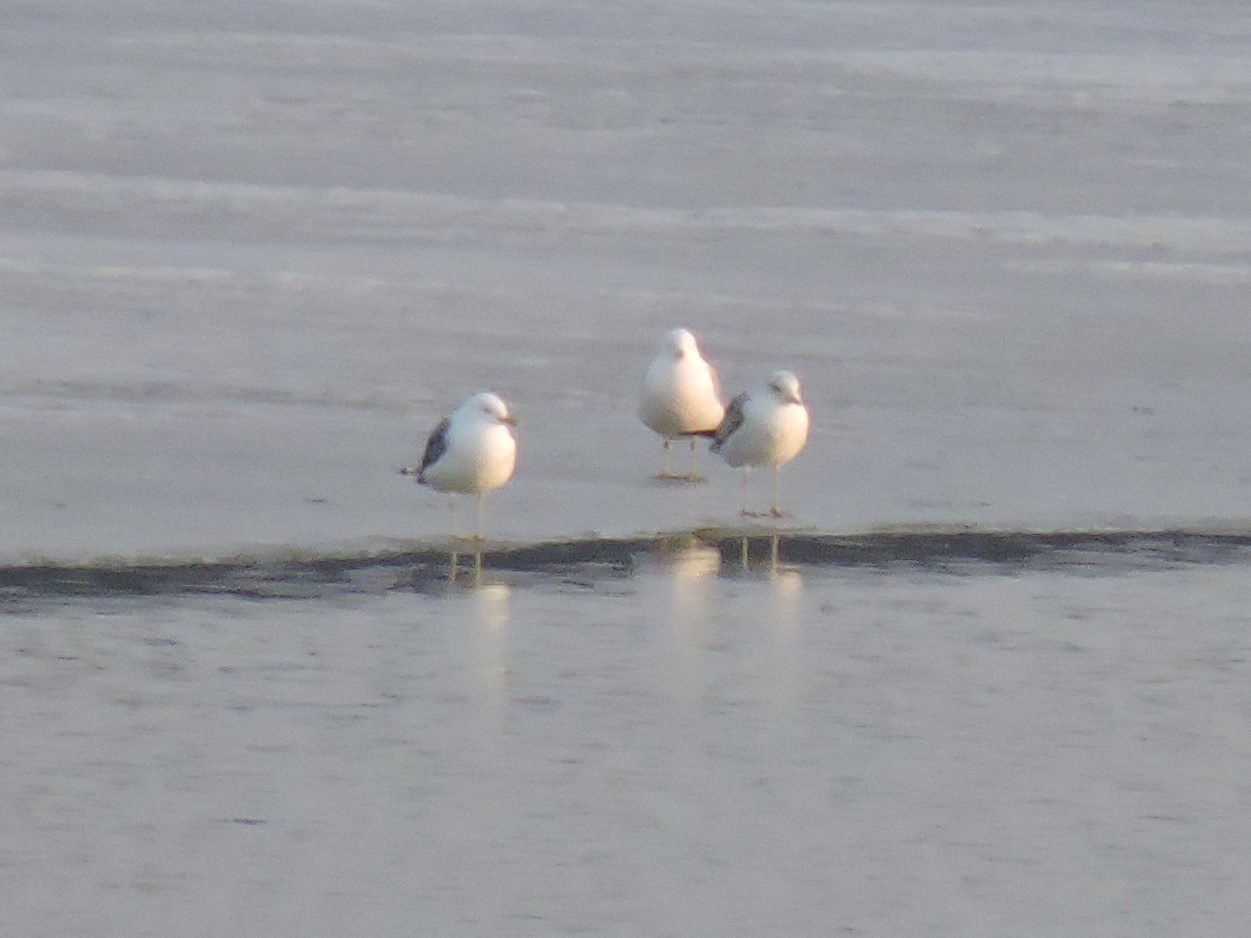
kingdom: Animalia
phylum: Chordata
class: Aves
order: Charadriiformes
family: Laridae
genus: Larus
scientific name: Larus canus
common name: Mew gull
